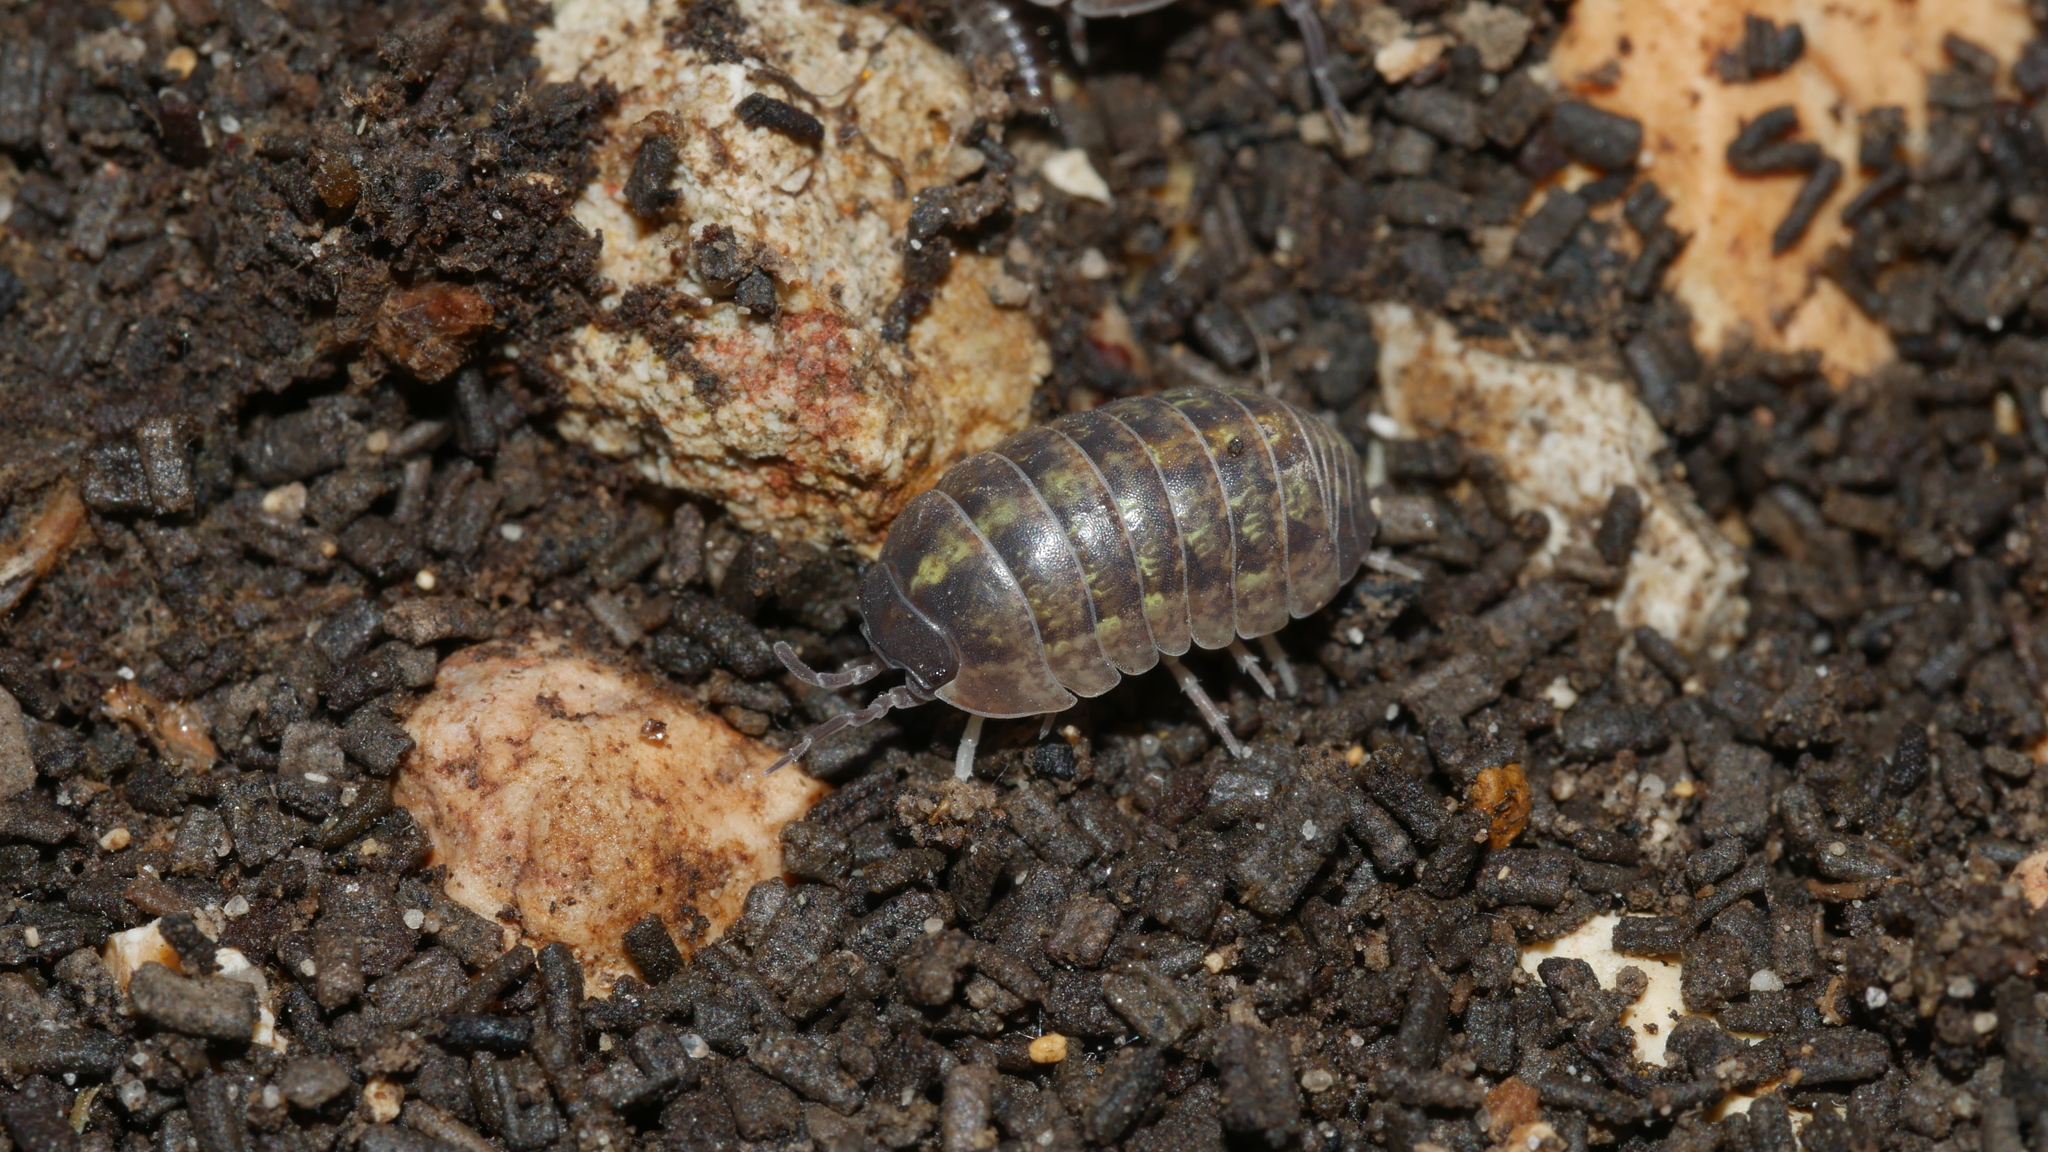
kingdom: Animalia
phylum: Arthropoda
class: Malacostraca
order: Isopoda
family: Armadillidiidae
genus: Armadillidium
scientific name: Armadillidium vulgare
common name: Common pill woodlouse
